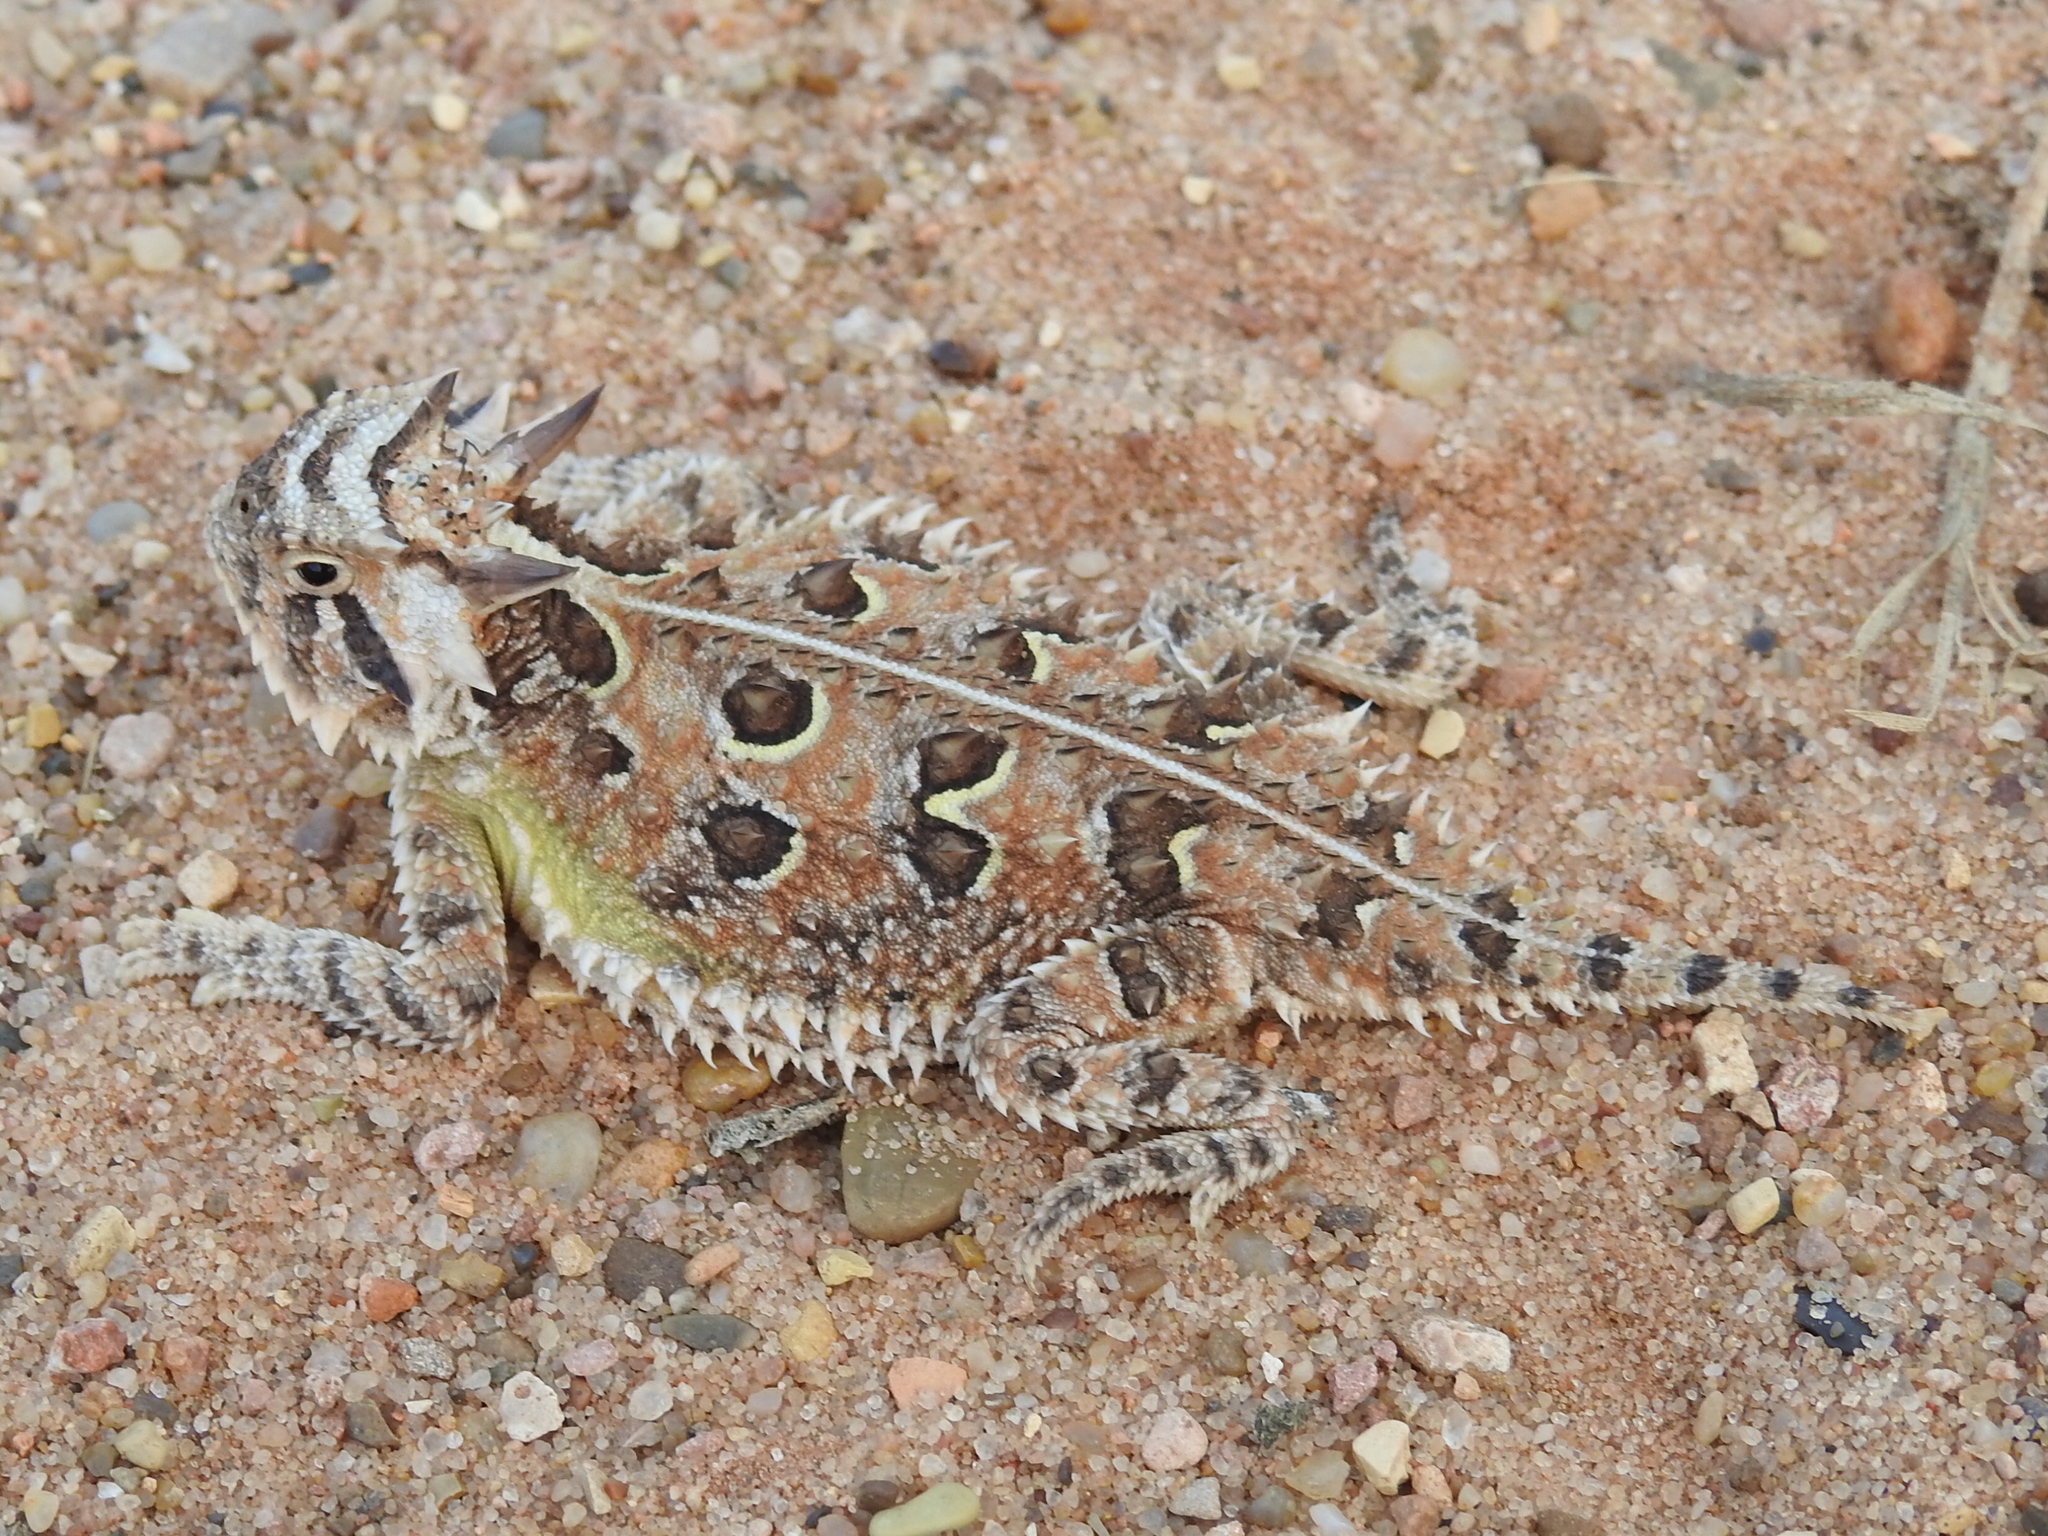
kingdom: Animalia
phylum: Chordata
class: Squamata
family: Phrynosomatidae
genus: Phrynosoma
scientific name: Phrynosoma cornutum
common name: Texas horned lizard
